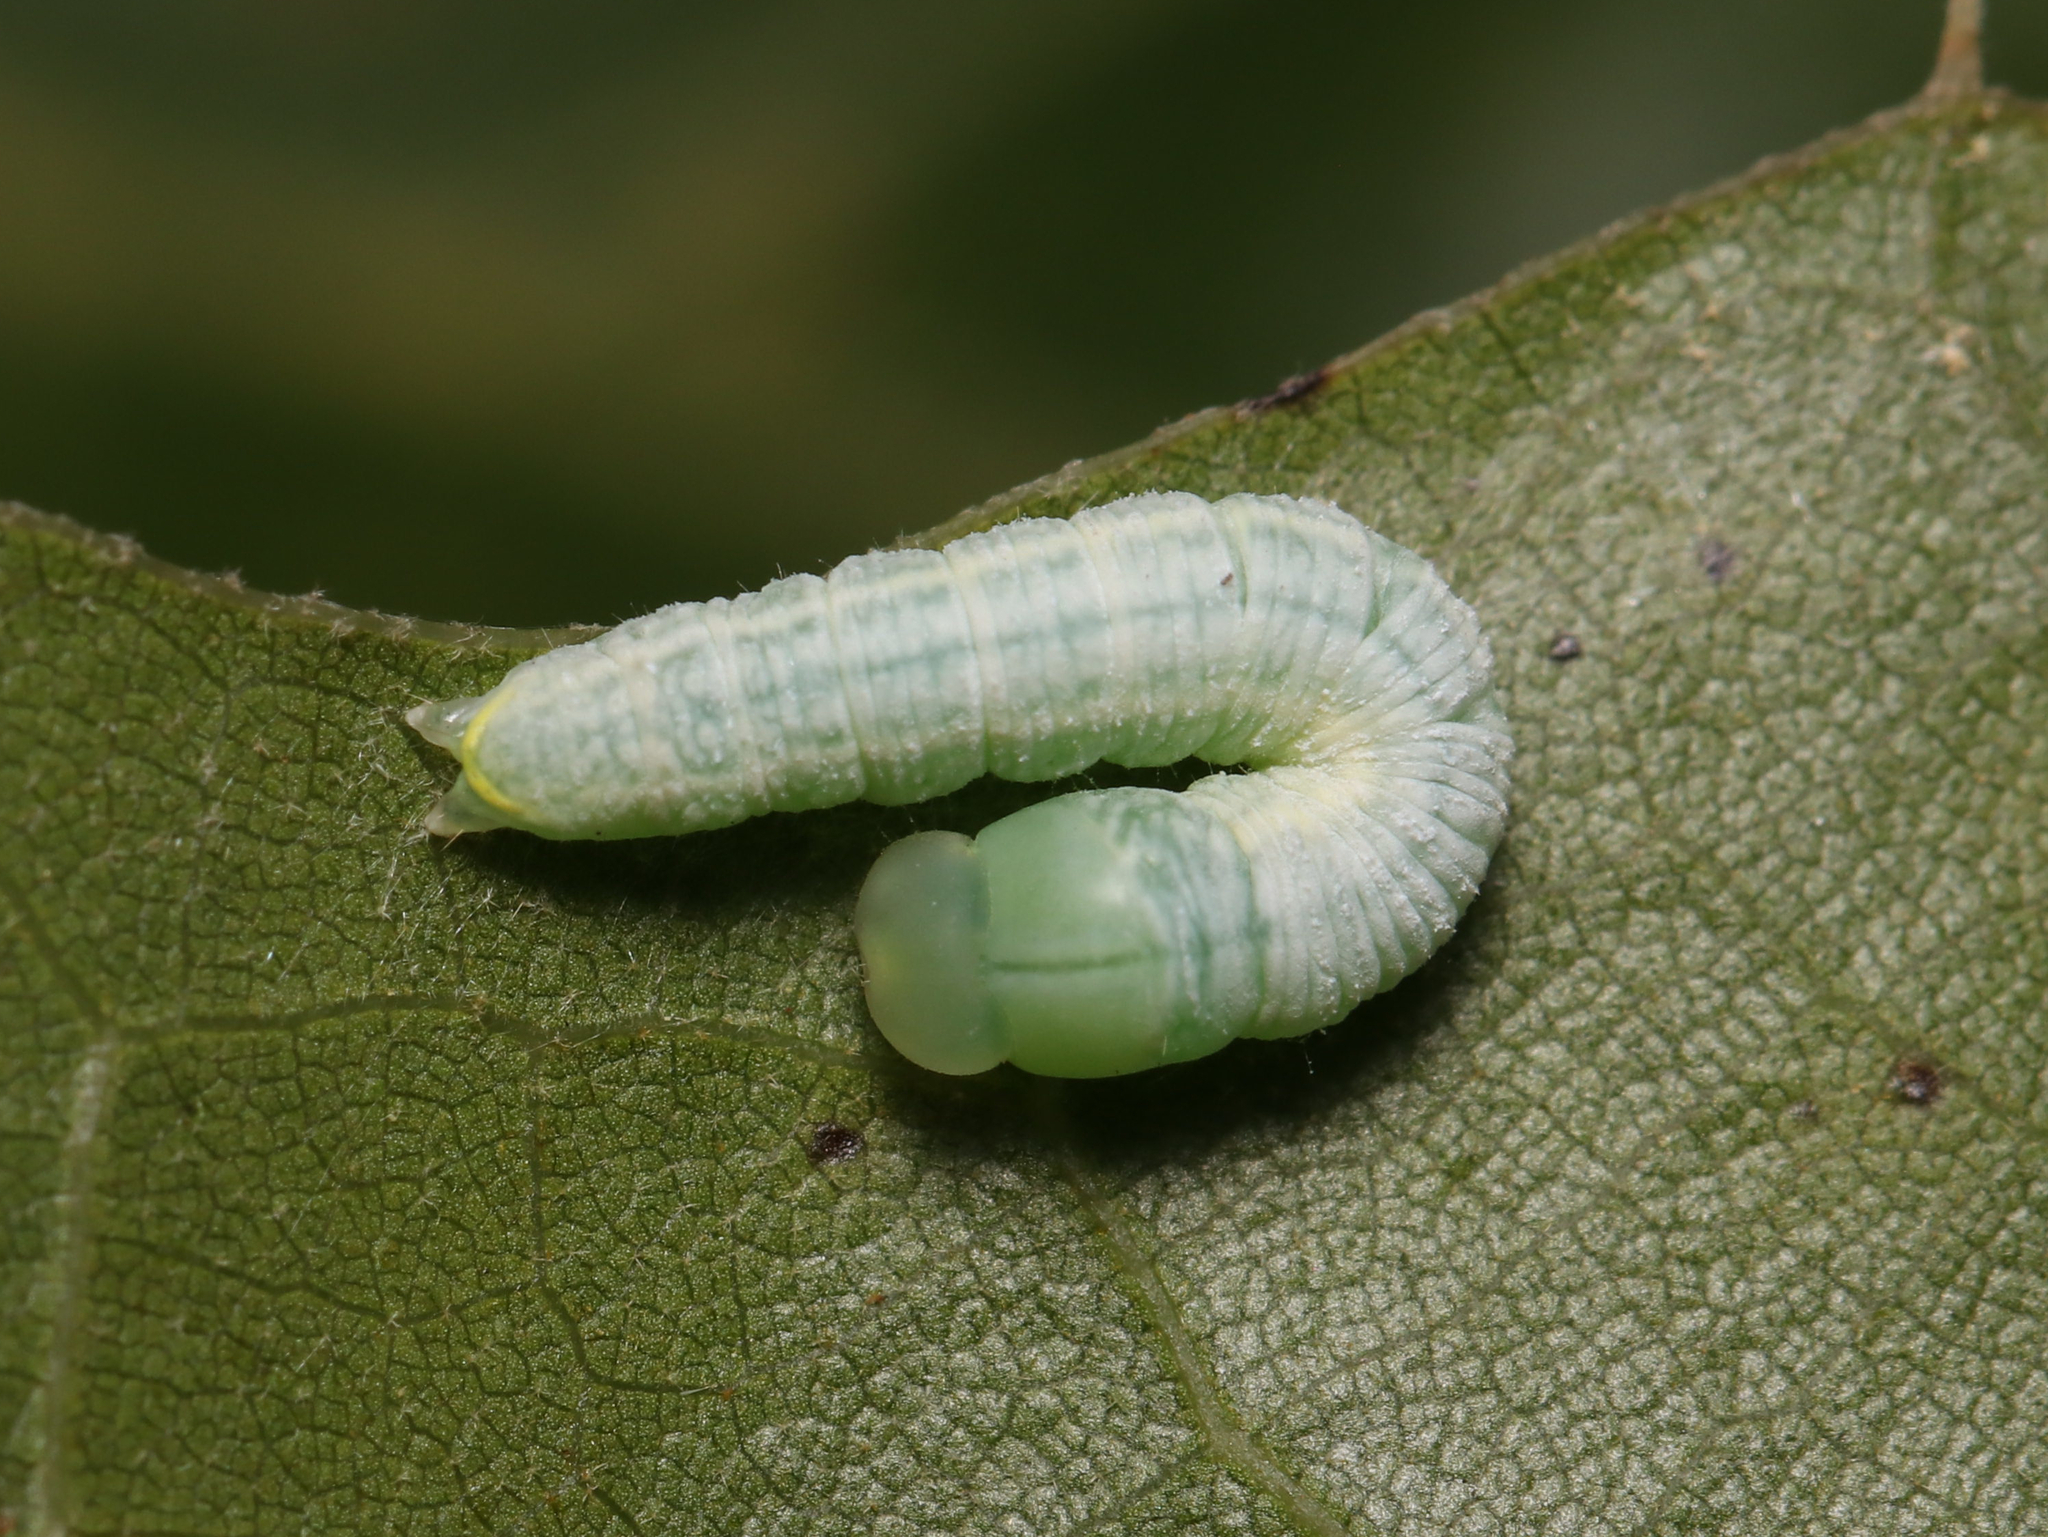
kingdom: Animalia
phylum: Arthropoda
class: Insecta
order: Lepidoptera
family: Notodontidae
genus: Nadata
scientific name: Nadata gibbosa
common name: White-dotted prominent
